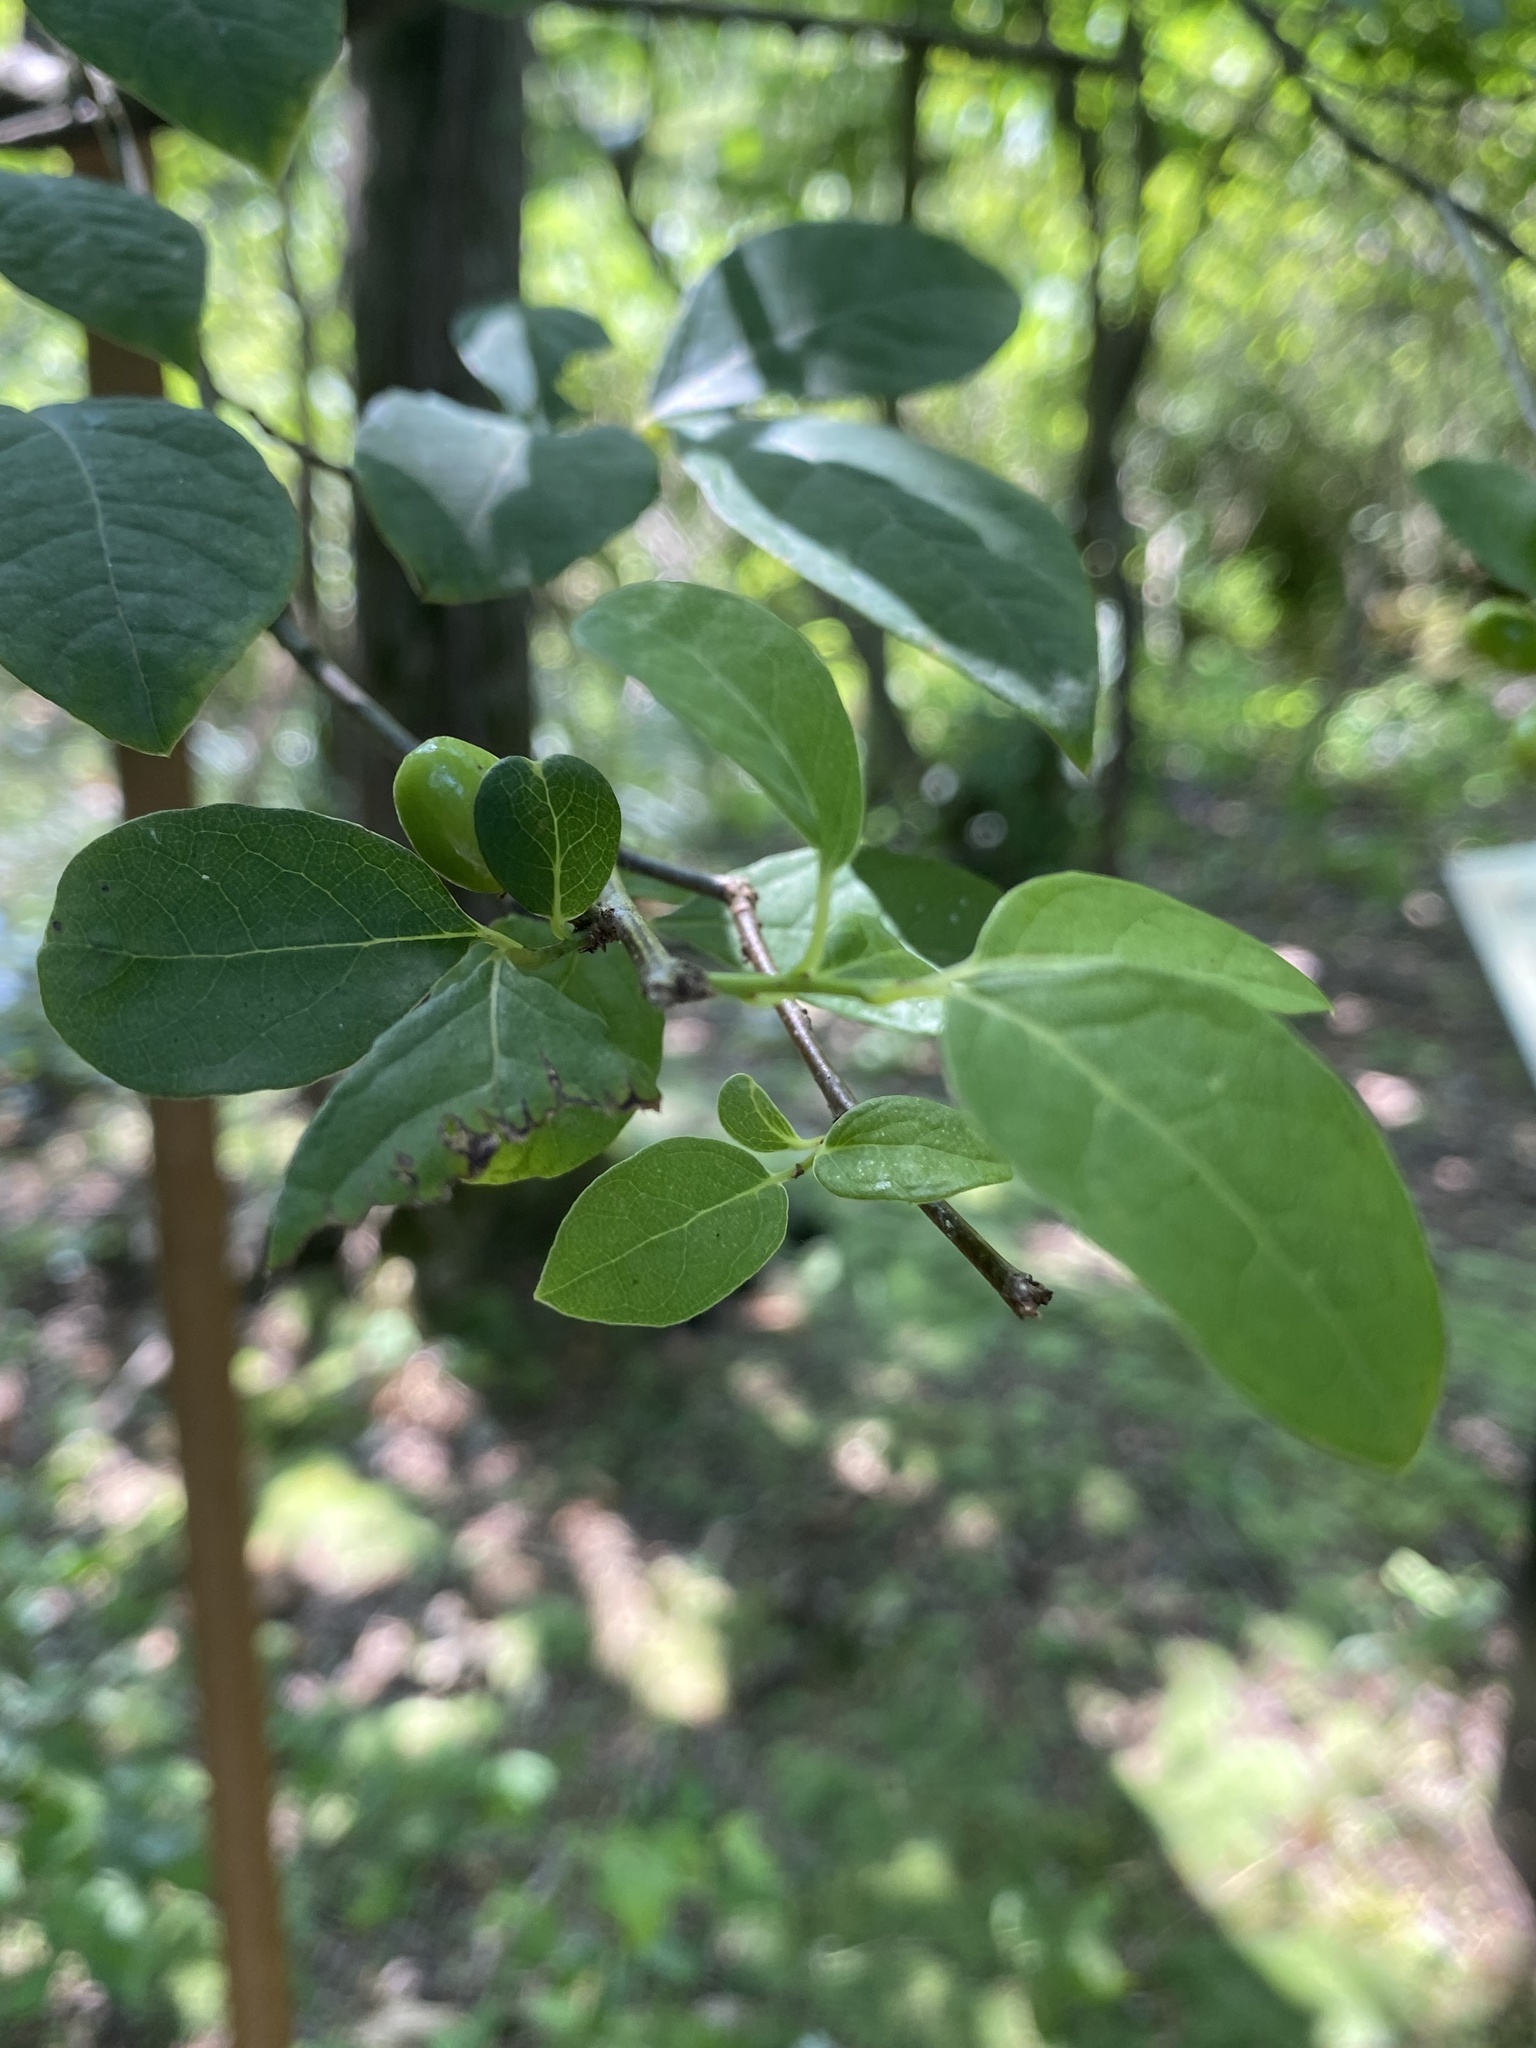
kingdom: Plantae
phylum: Tracheophyta
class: Magnoliopsida
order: Laurales
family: Lauraceae
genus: Lindera
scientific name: Lindera benzoin
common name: Spicebush
